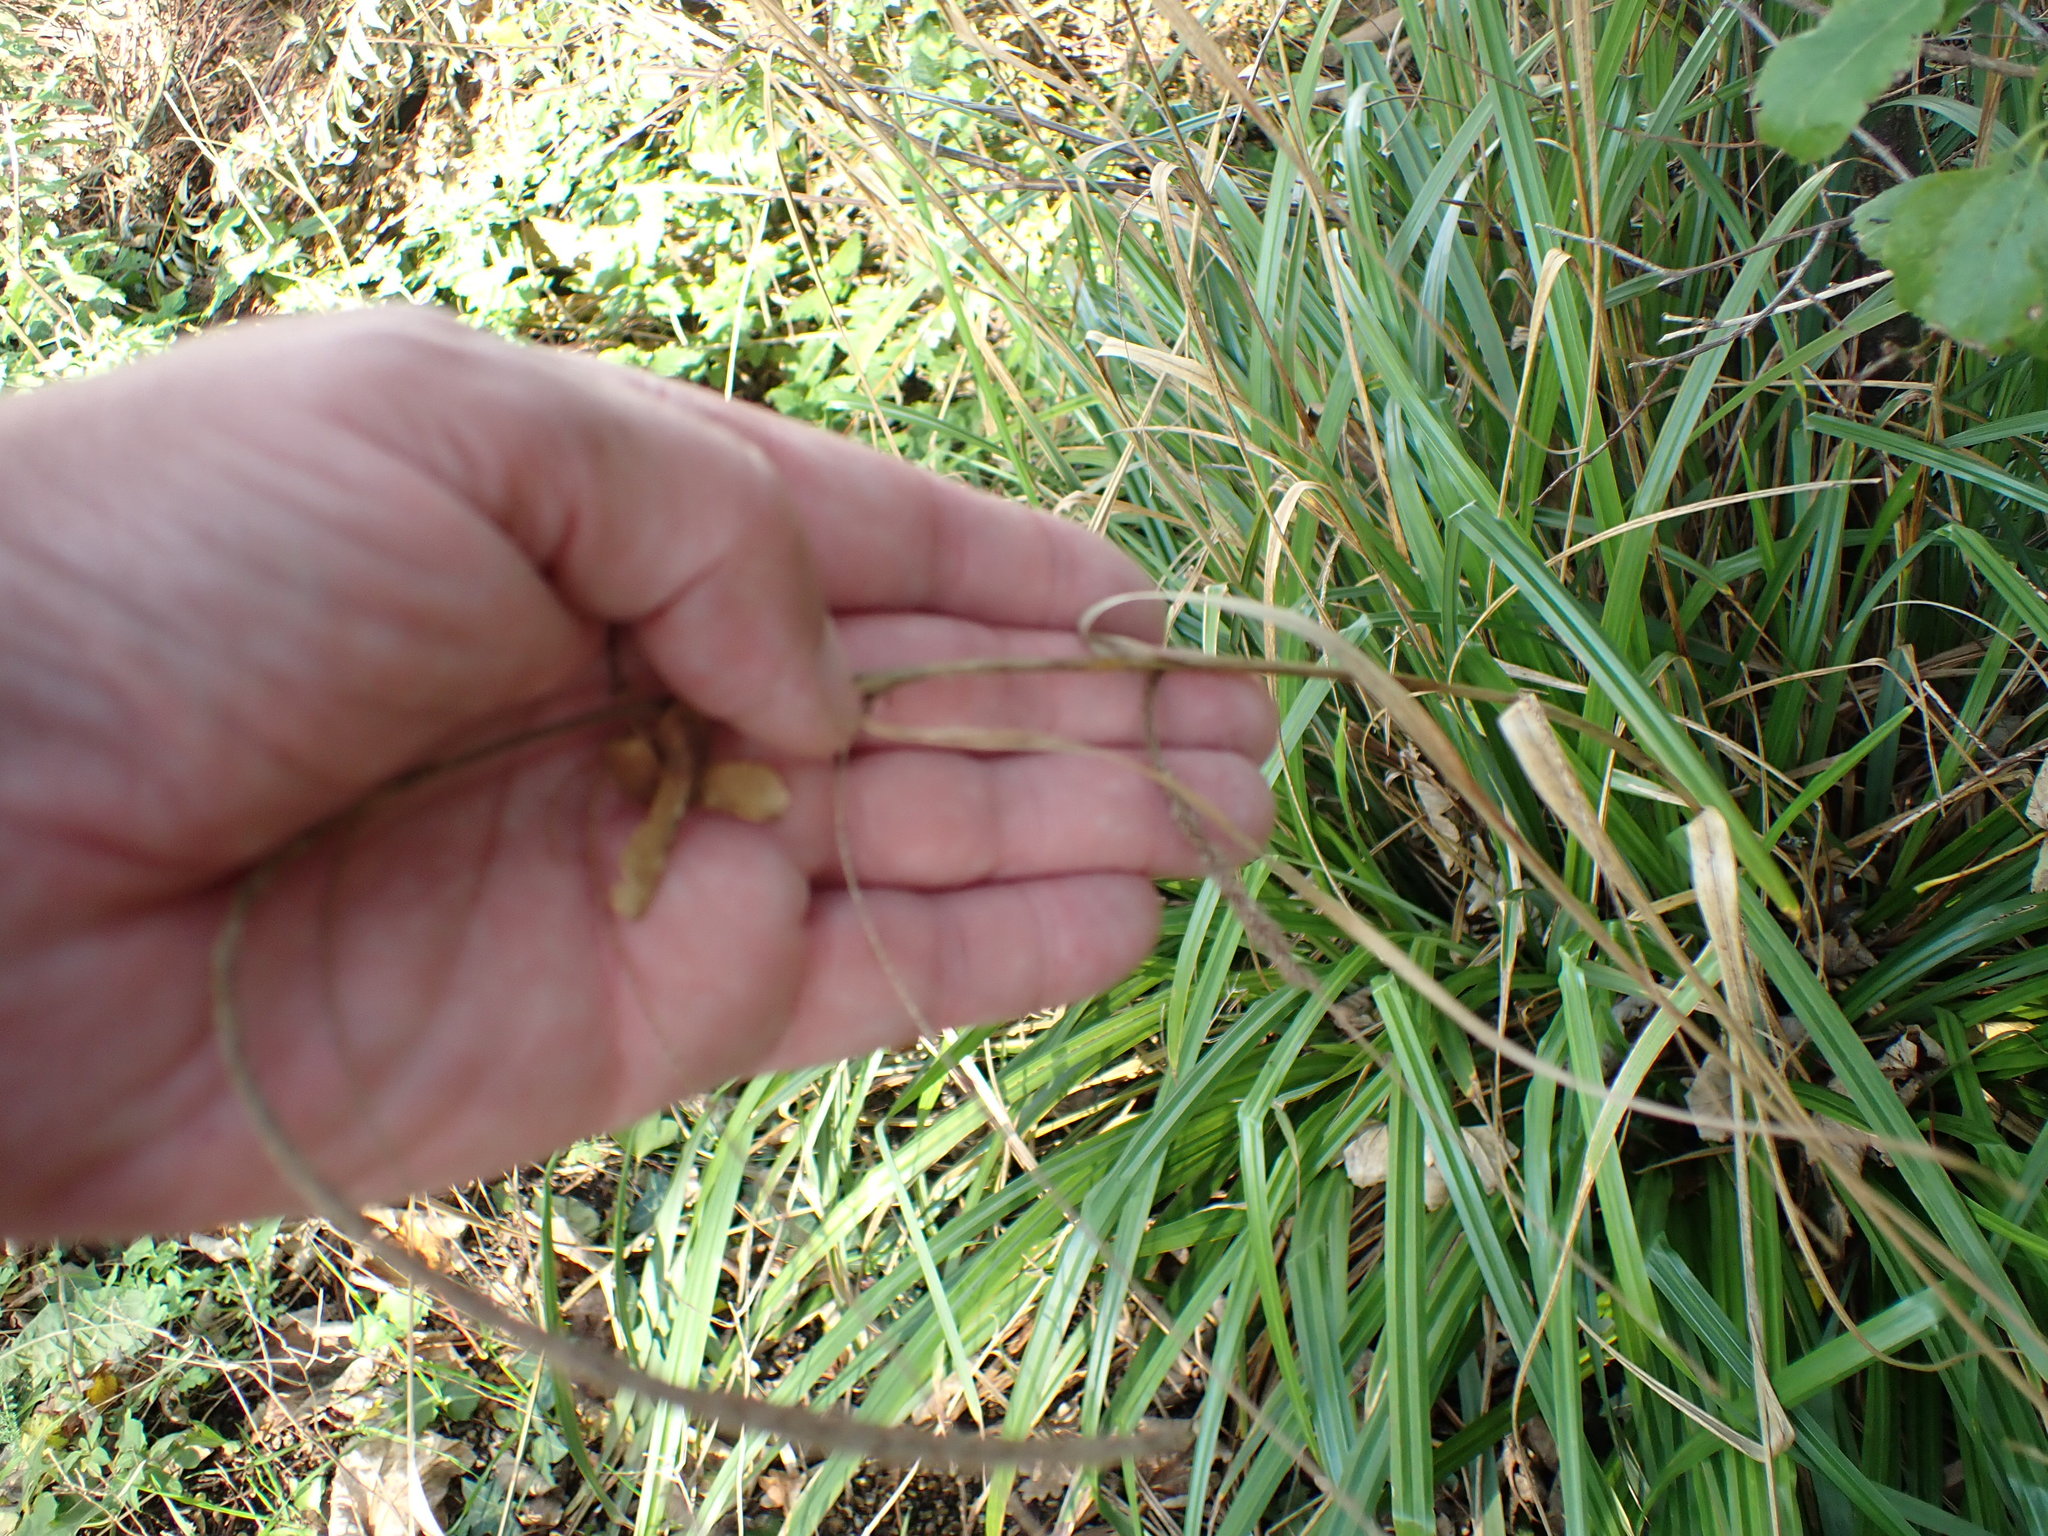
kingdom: Plantae
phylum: Tracheophyta
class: Liliopsida
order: Poales
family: Cyperaceae
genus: Carex
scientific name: Carex pendula
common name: Pendulous sedge
